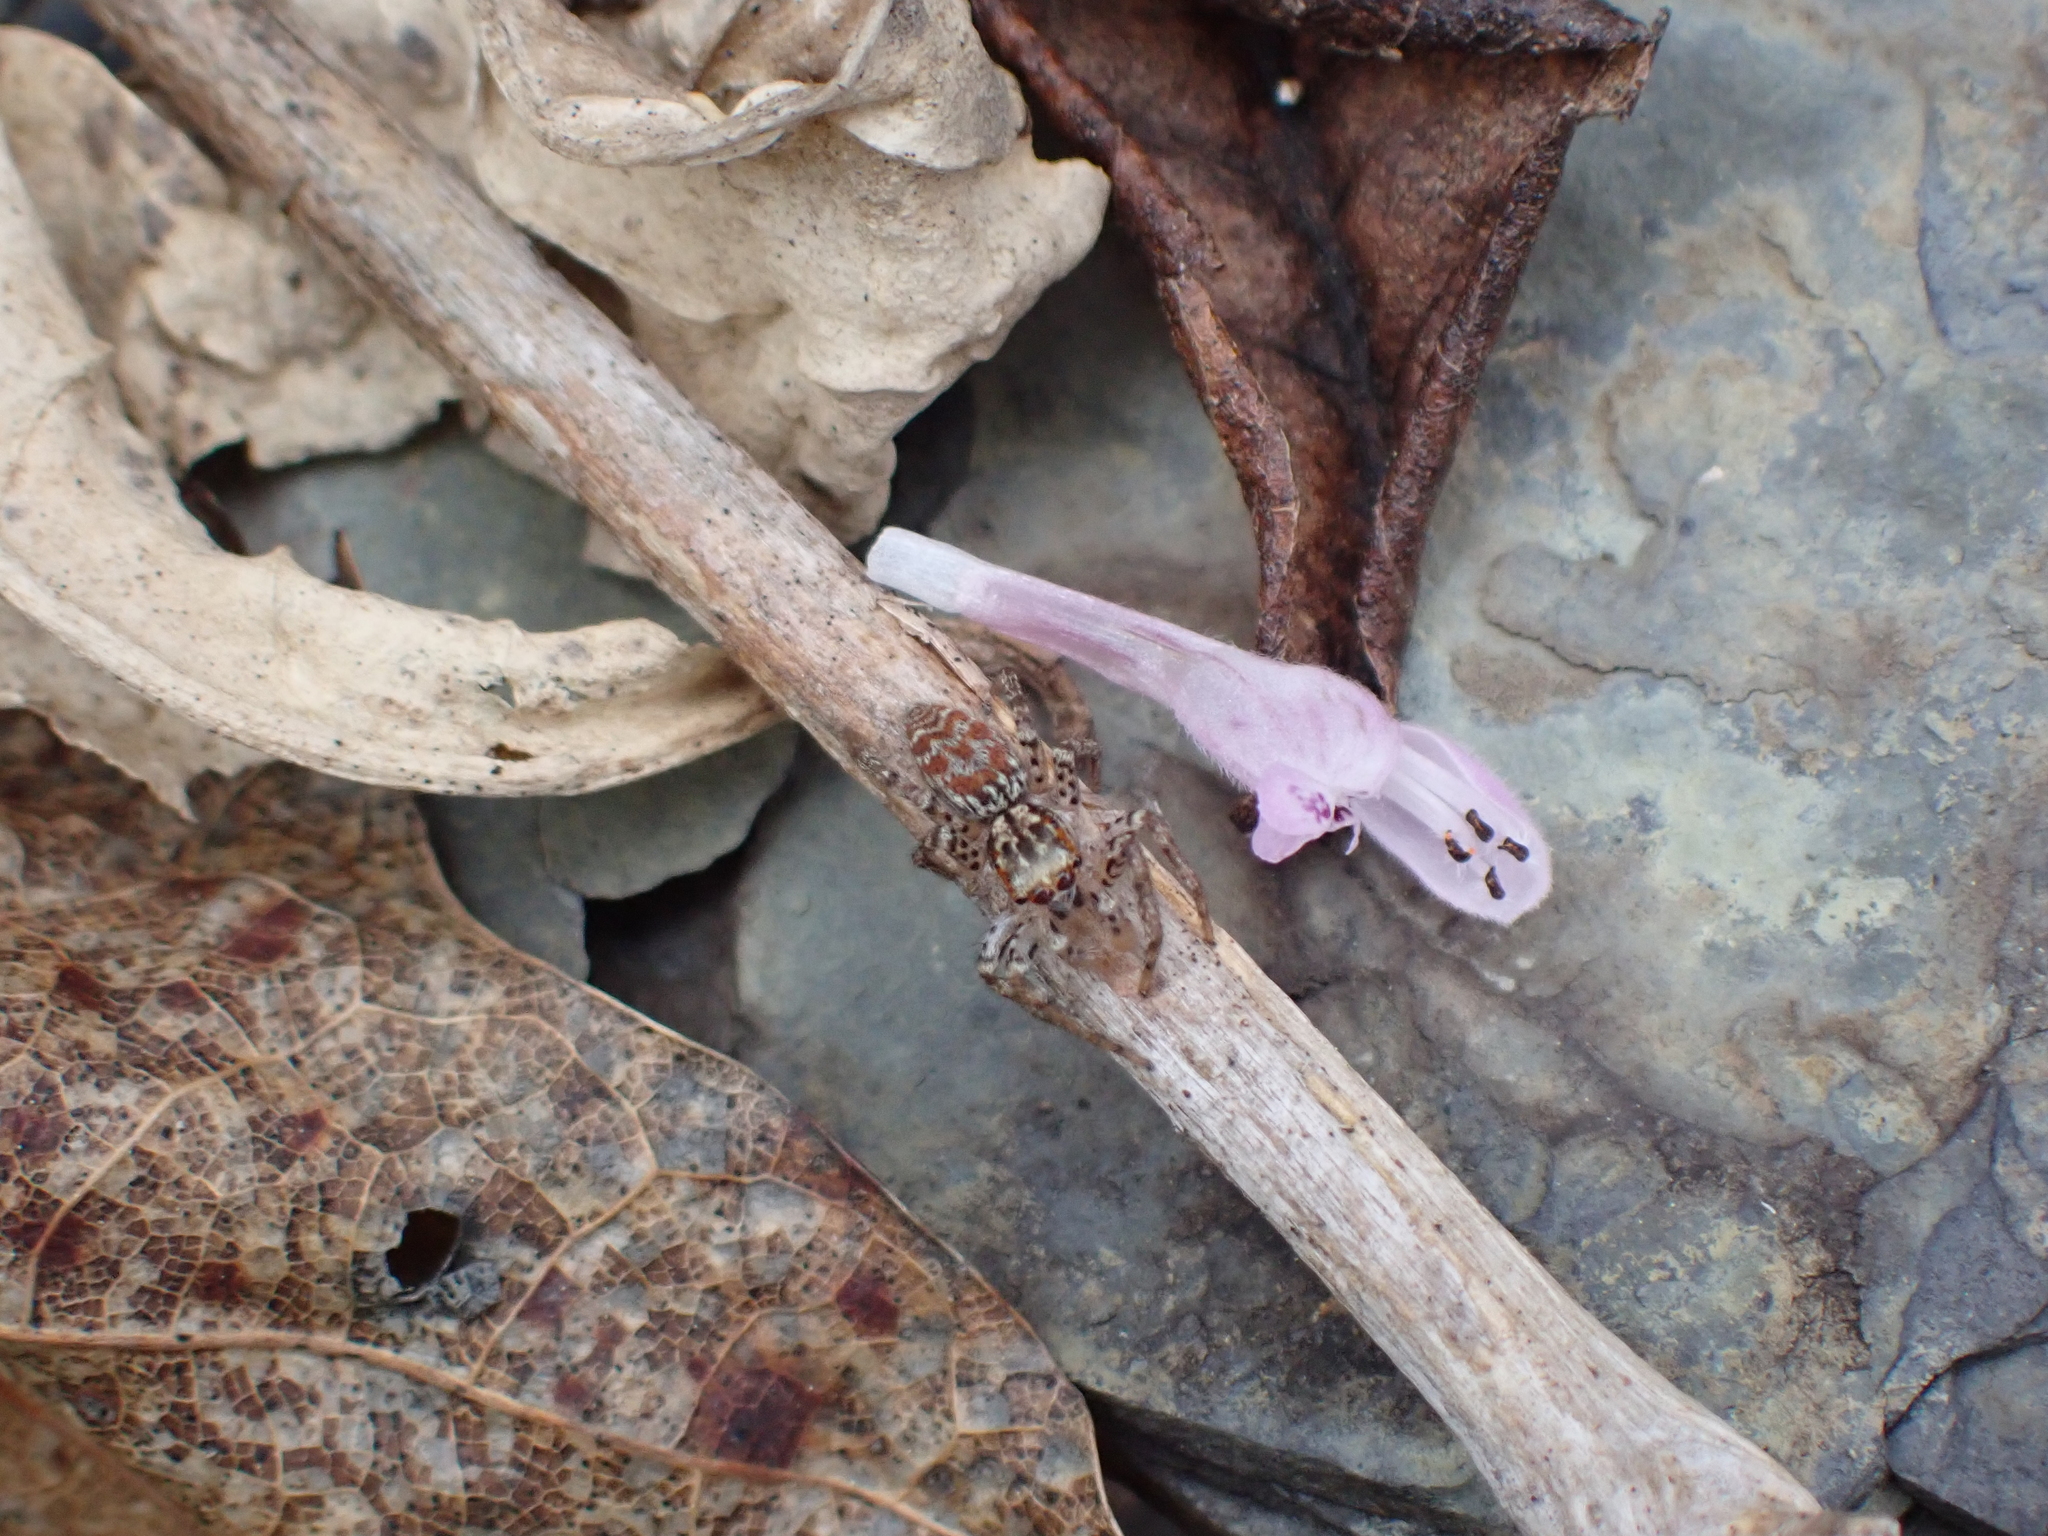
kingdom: Animalia
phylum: Arthropoda
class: Arachnida
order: Araneae
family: Salticidae
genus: Maevia
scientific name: Maevia inclemens
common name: Dimorphic jumper
